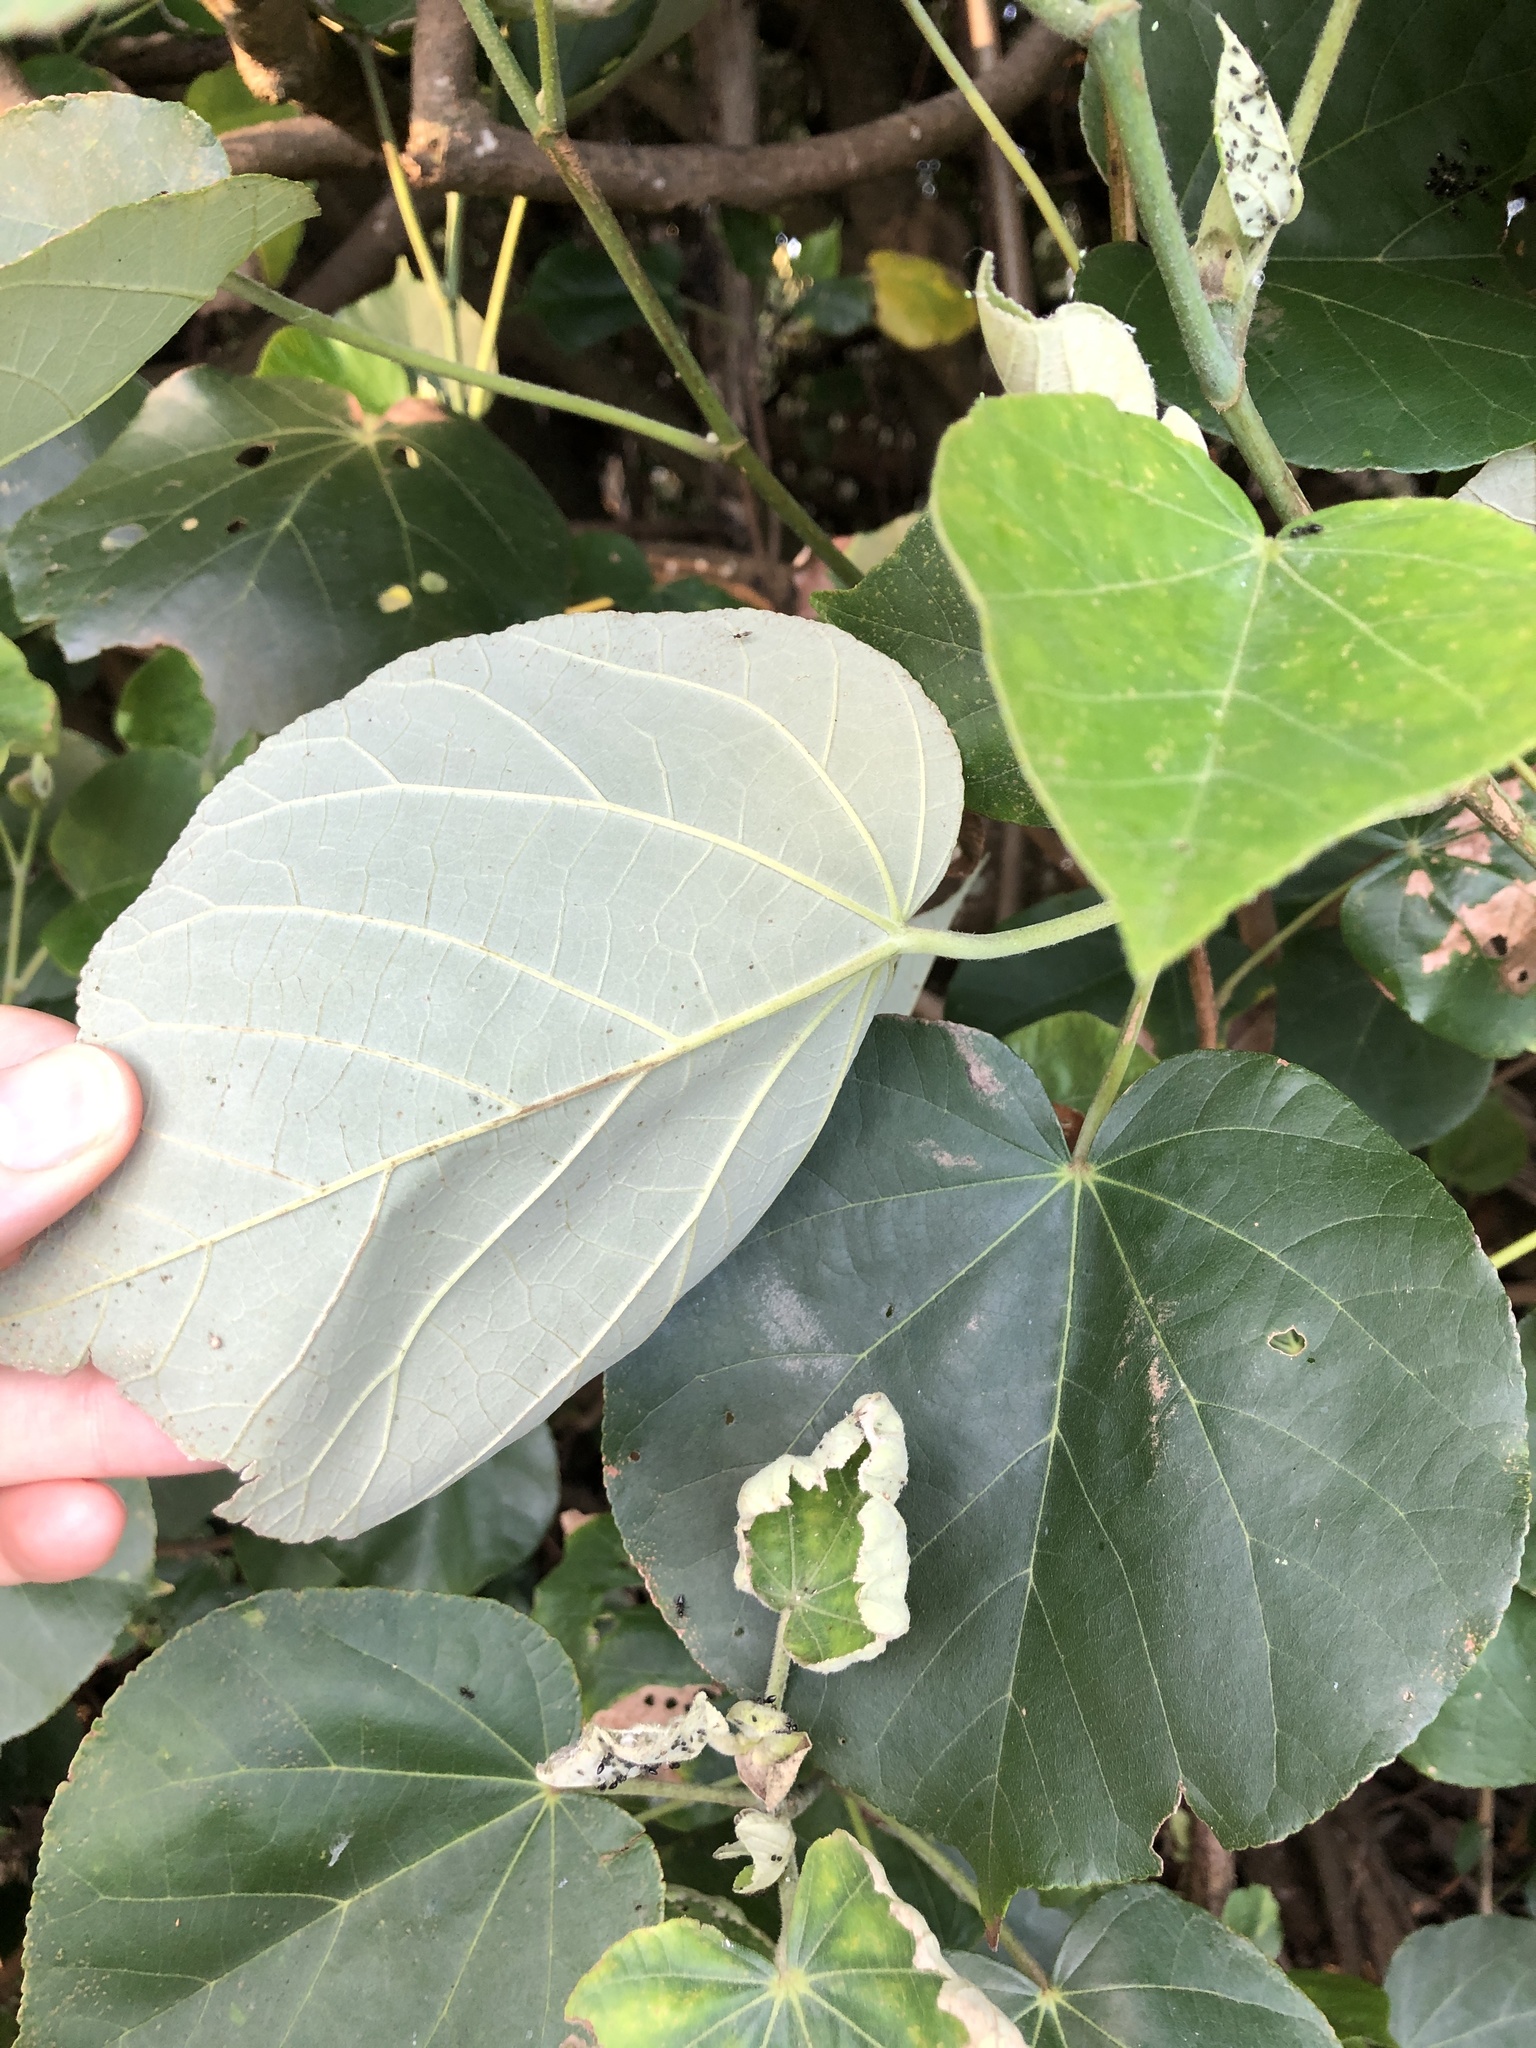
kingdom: Plantae
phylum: Tracheophyta
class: Magnoliopsida
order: Malvales
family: Malvaceae
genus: Talipariti
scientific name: Talipariti tiliaceum
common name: Sea hibiscus
